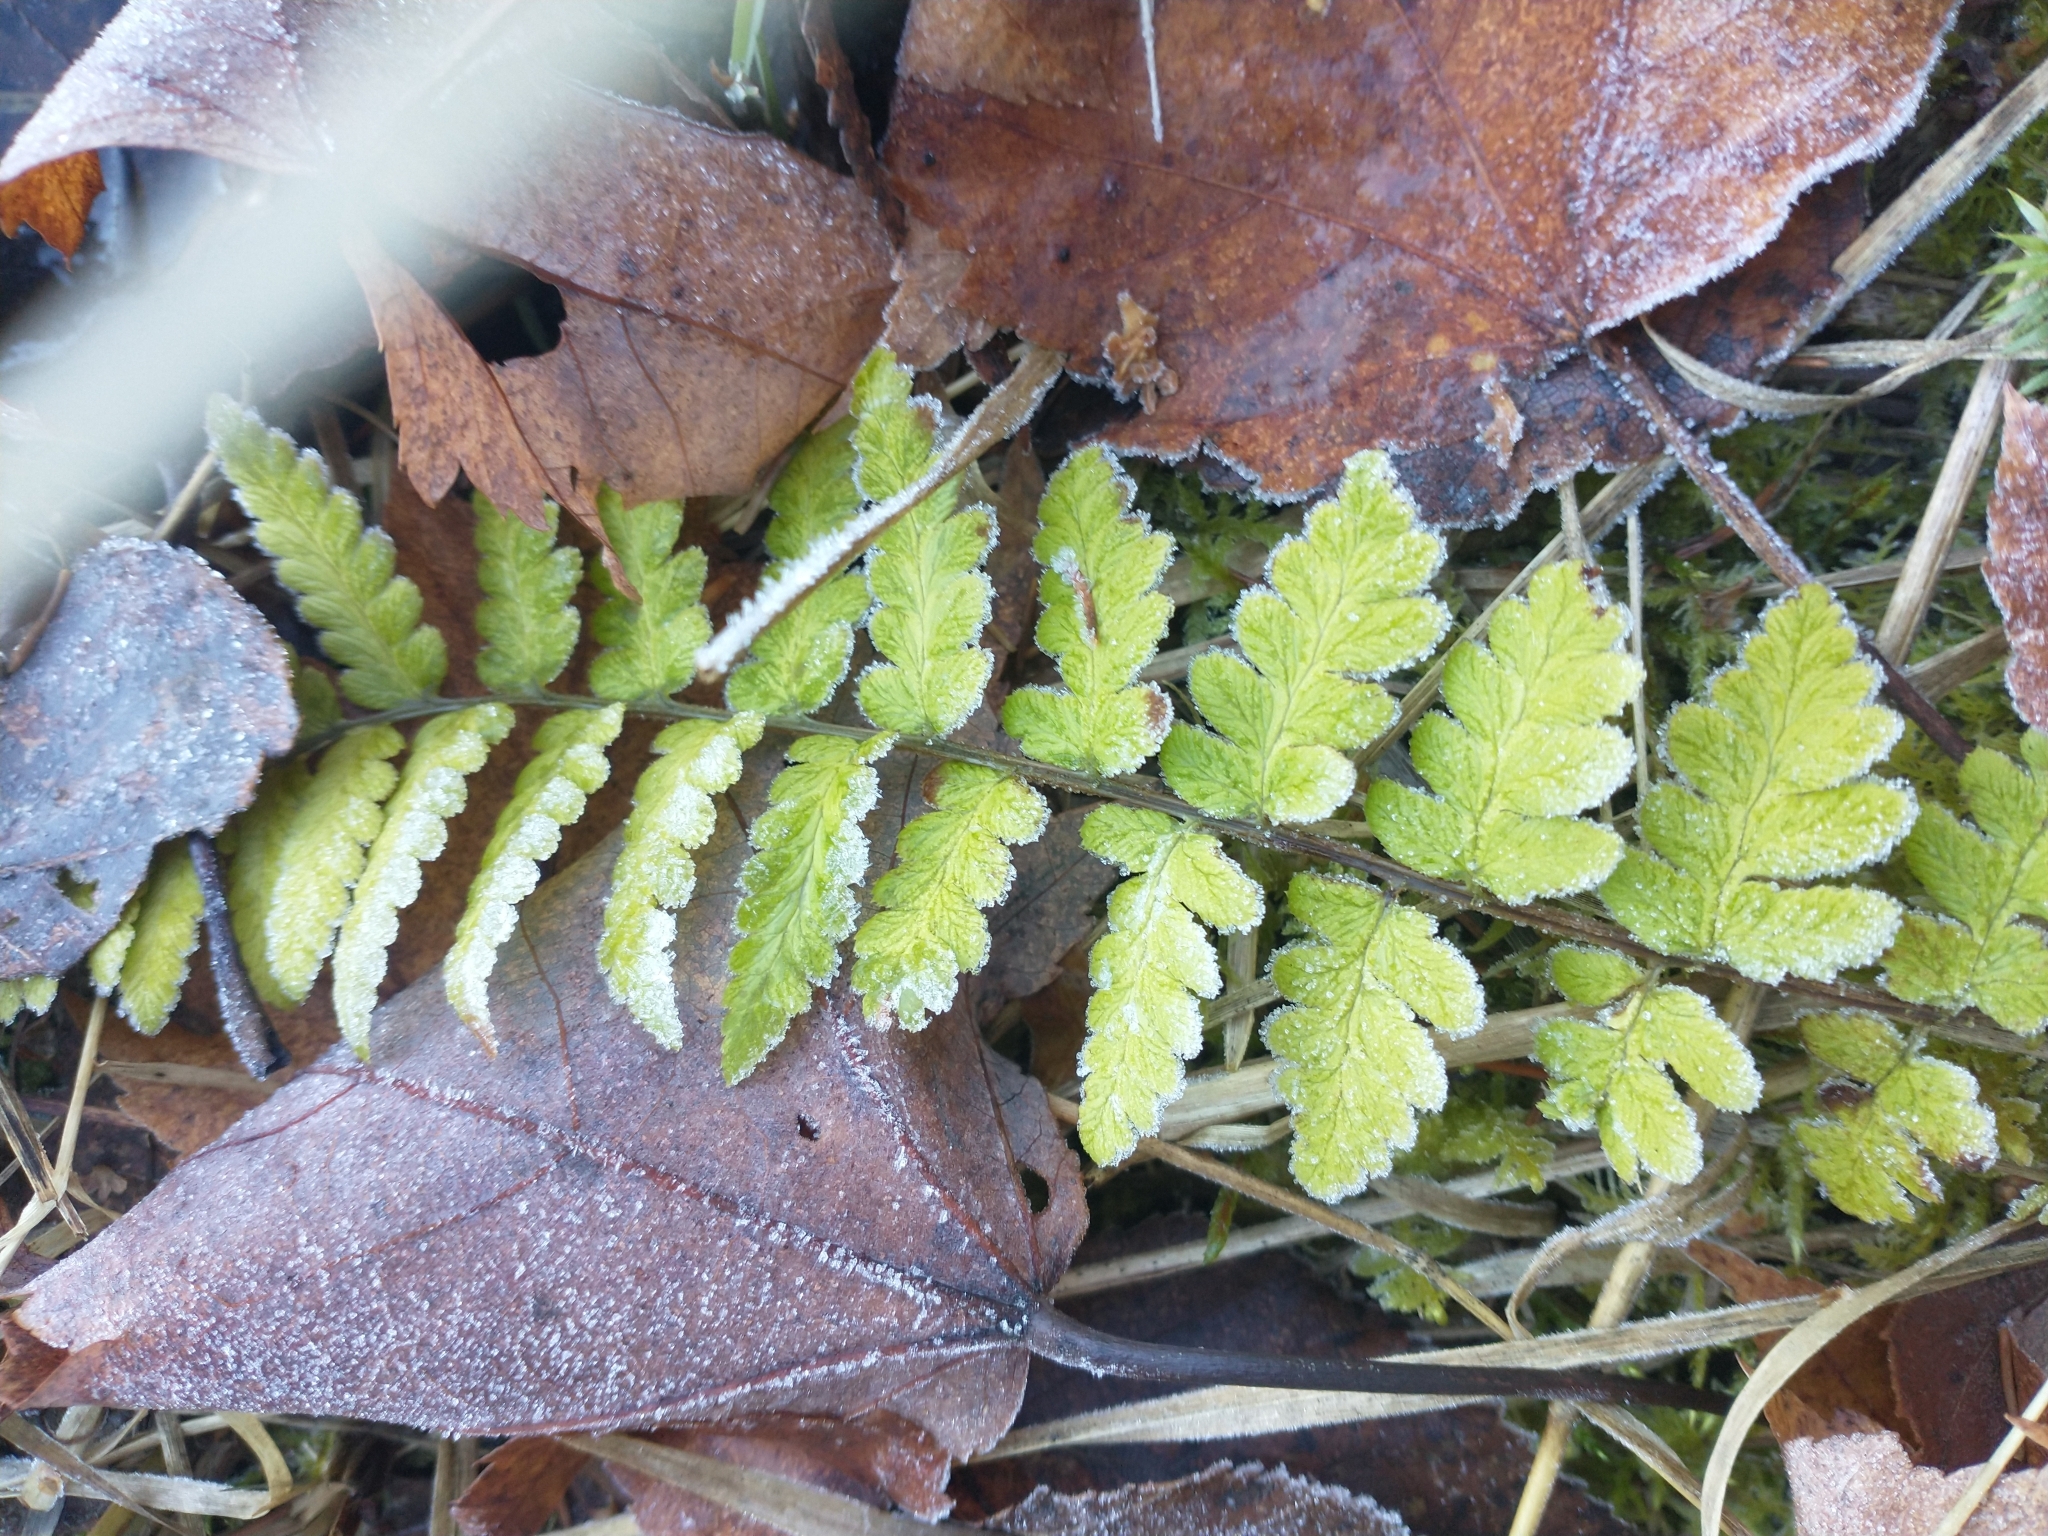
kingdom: Plantae
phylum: Tracheophyta
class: Polypodiopsida
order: Polypodiales
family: Dryopteridaceae
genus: Dryopteris
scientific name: Dryopteris cristata
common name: Crested wood fern
